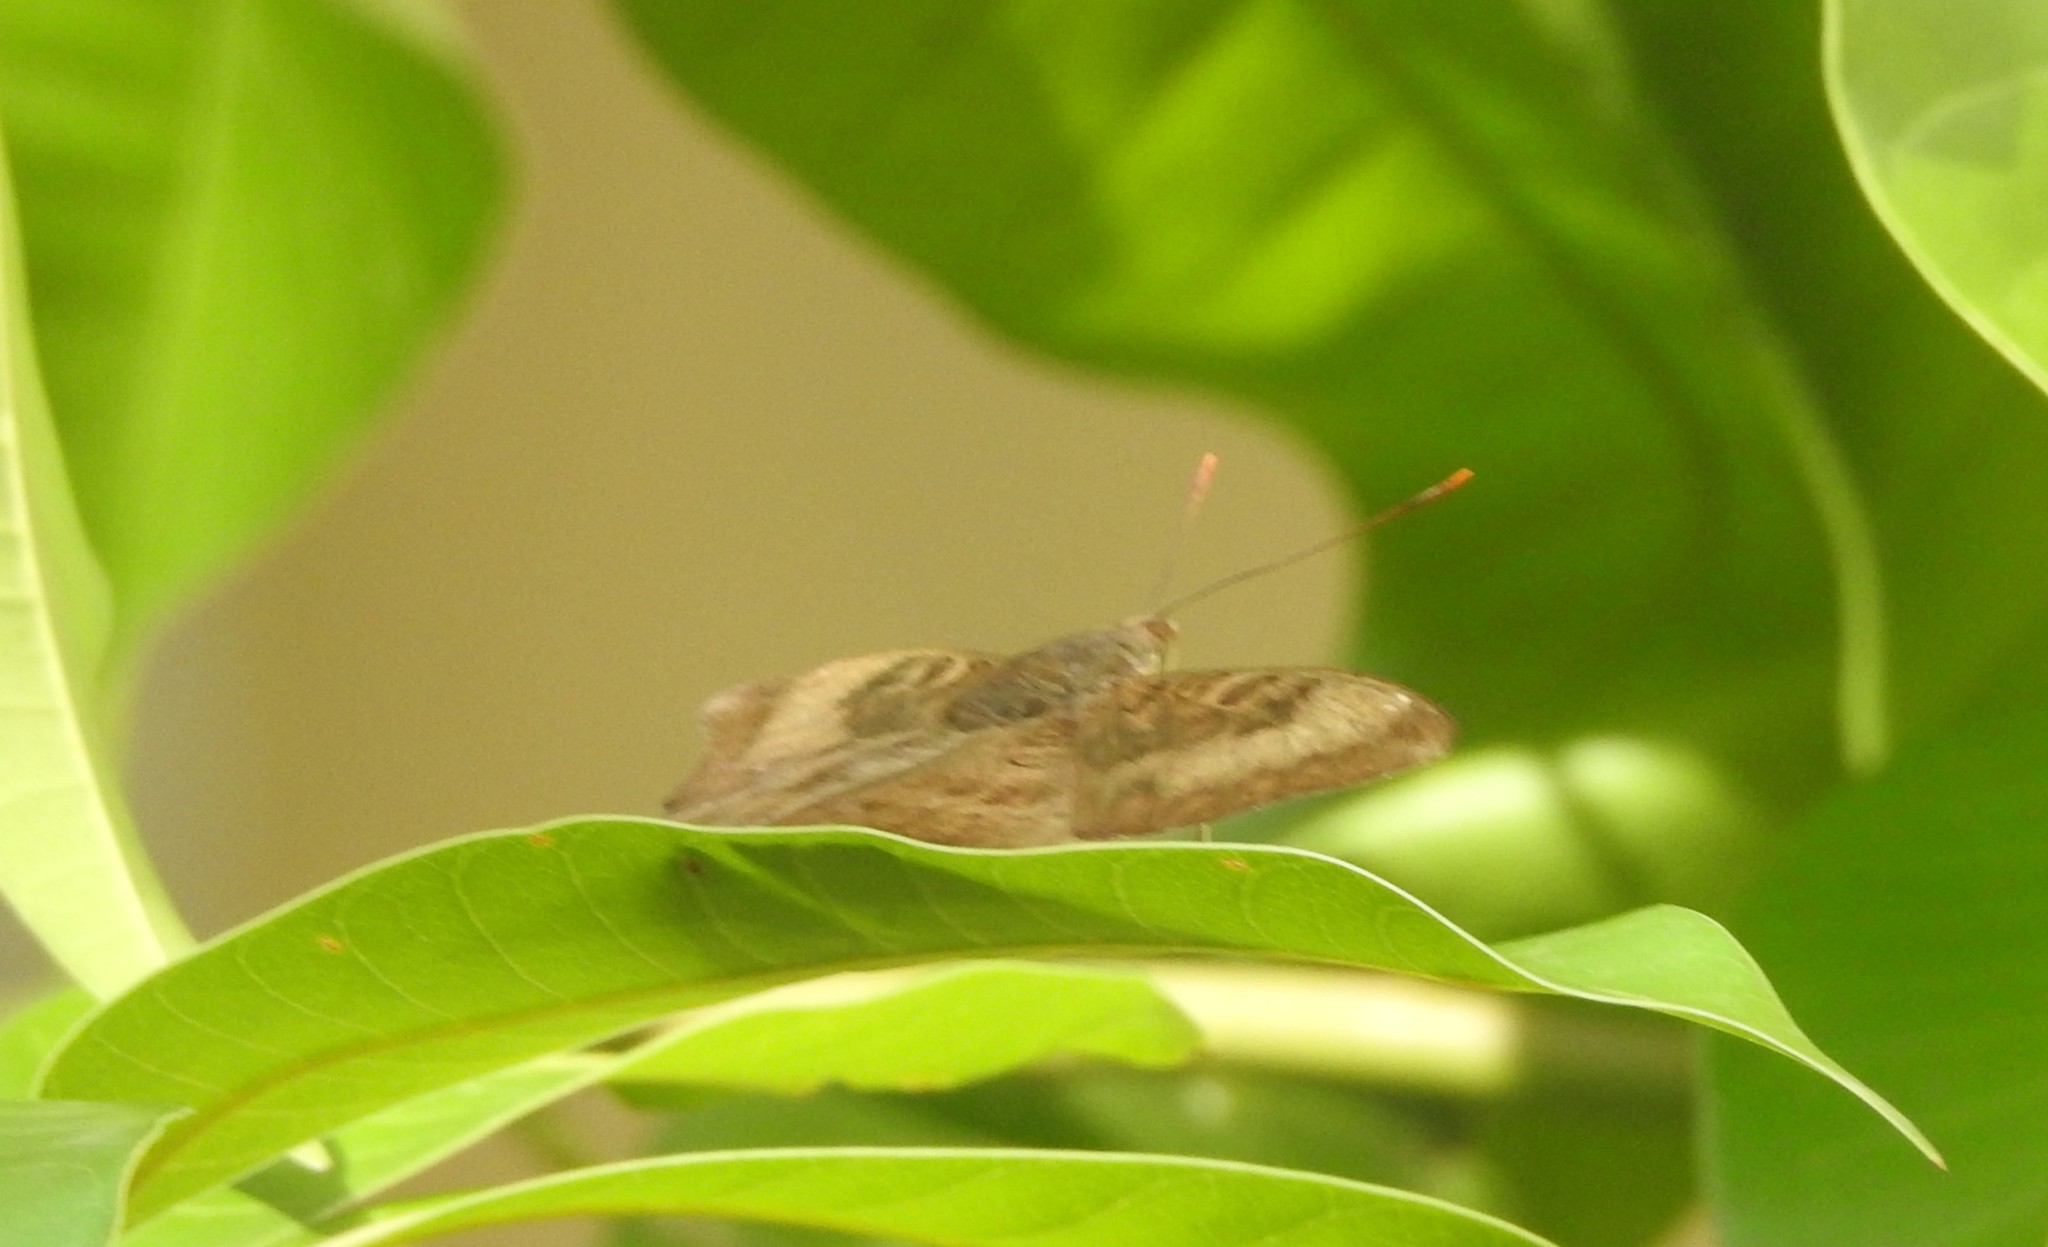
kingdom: Animalia
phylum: Arthropoda
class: Insecta
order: Lepidoptera
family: Nymphalidae
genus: Euthalia
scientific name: Euthalia aconthea
